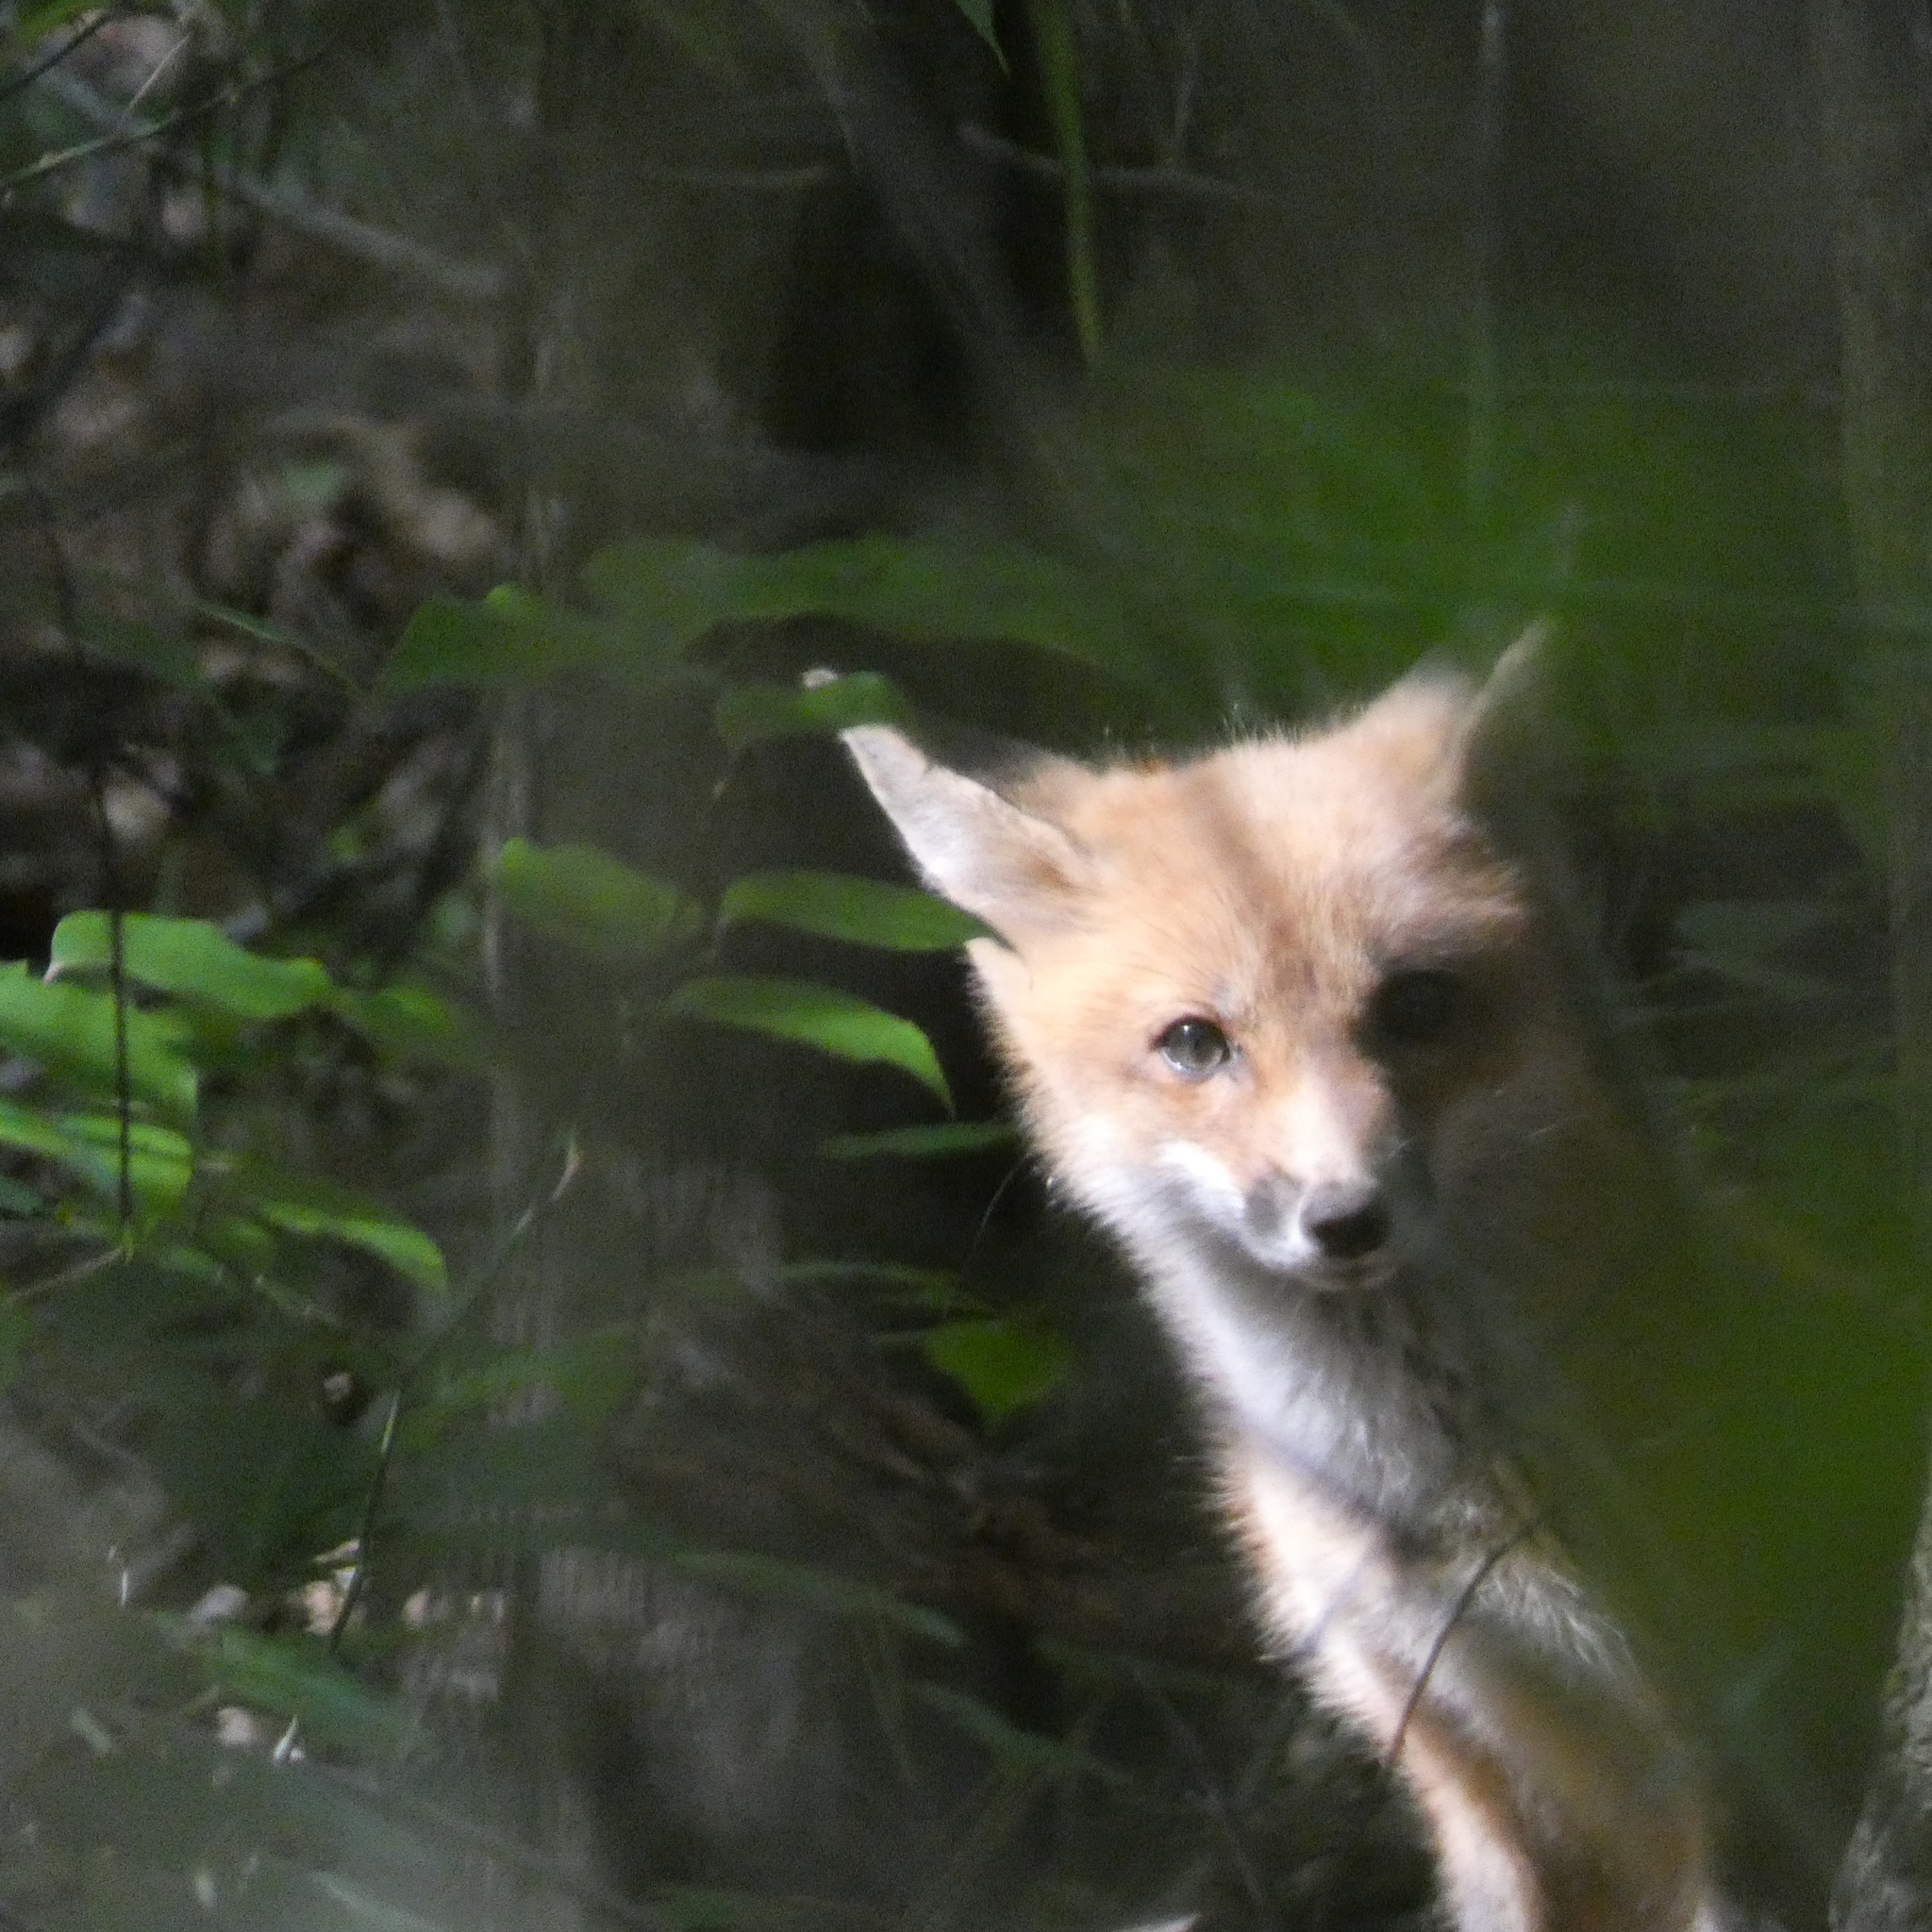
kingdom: Animalia
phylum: Chordata
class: Mammalia
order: Carnivora
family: Canidae
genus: Vulpes
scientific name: Vulpes vulpes
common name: Red fox
